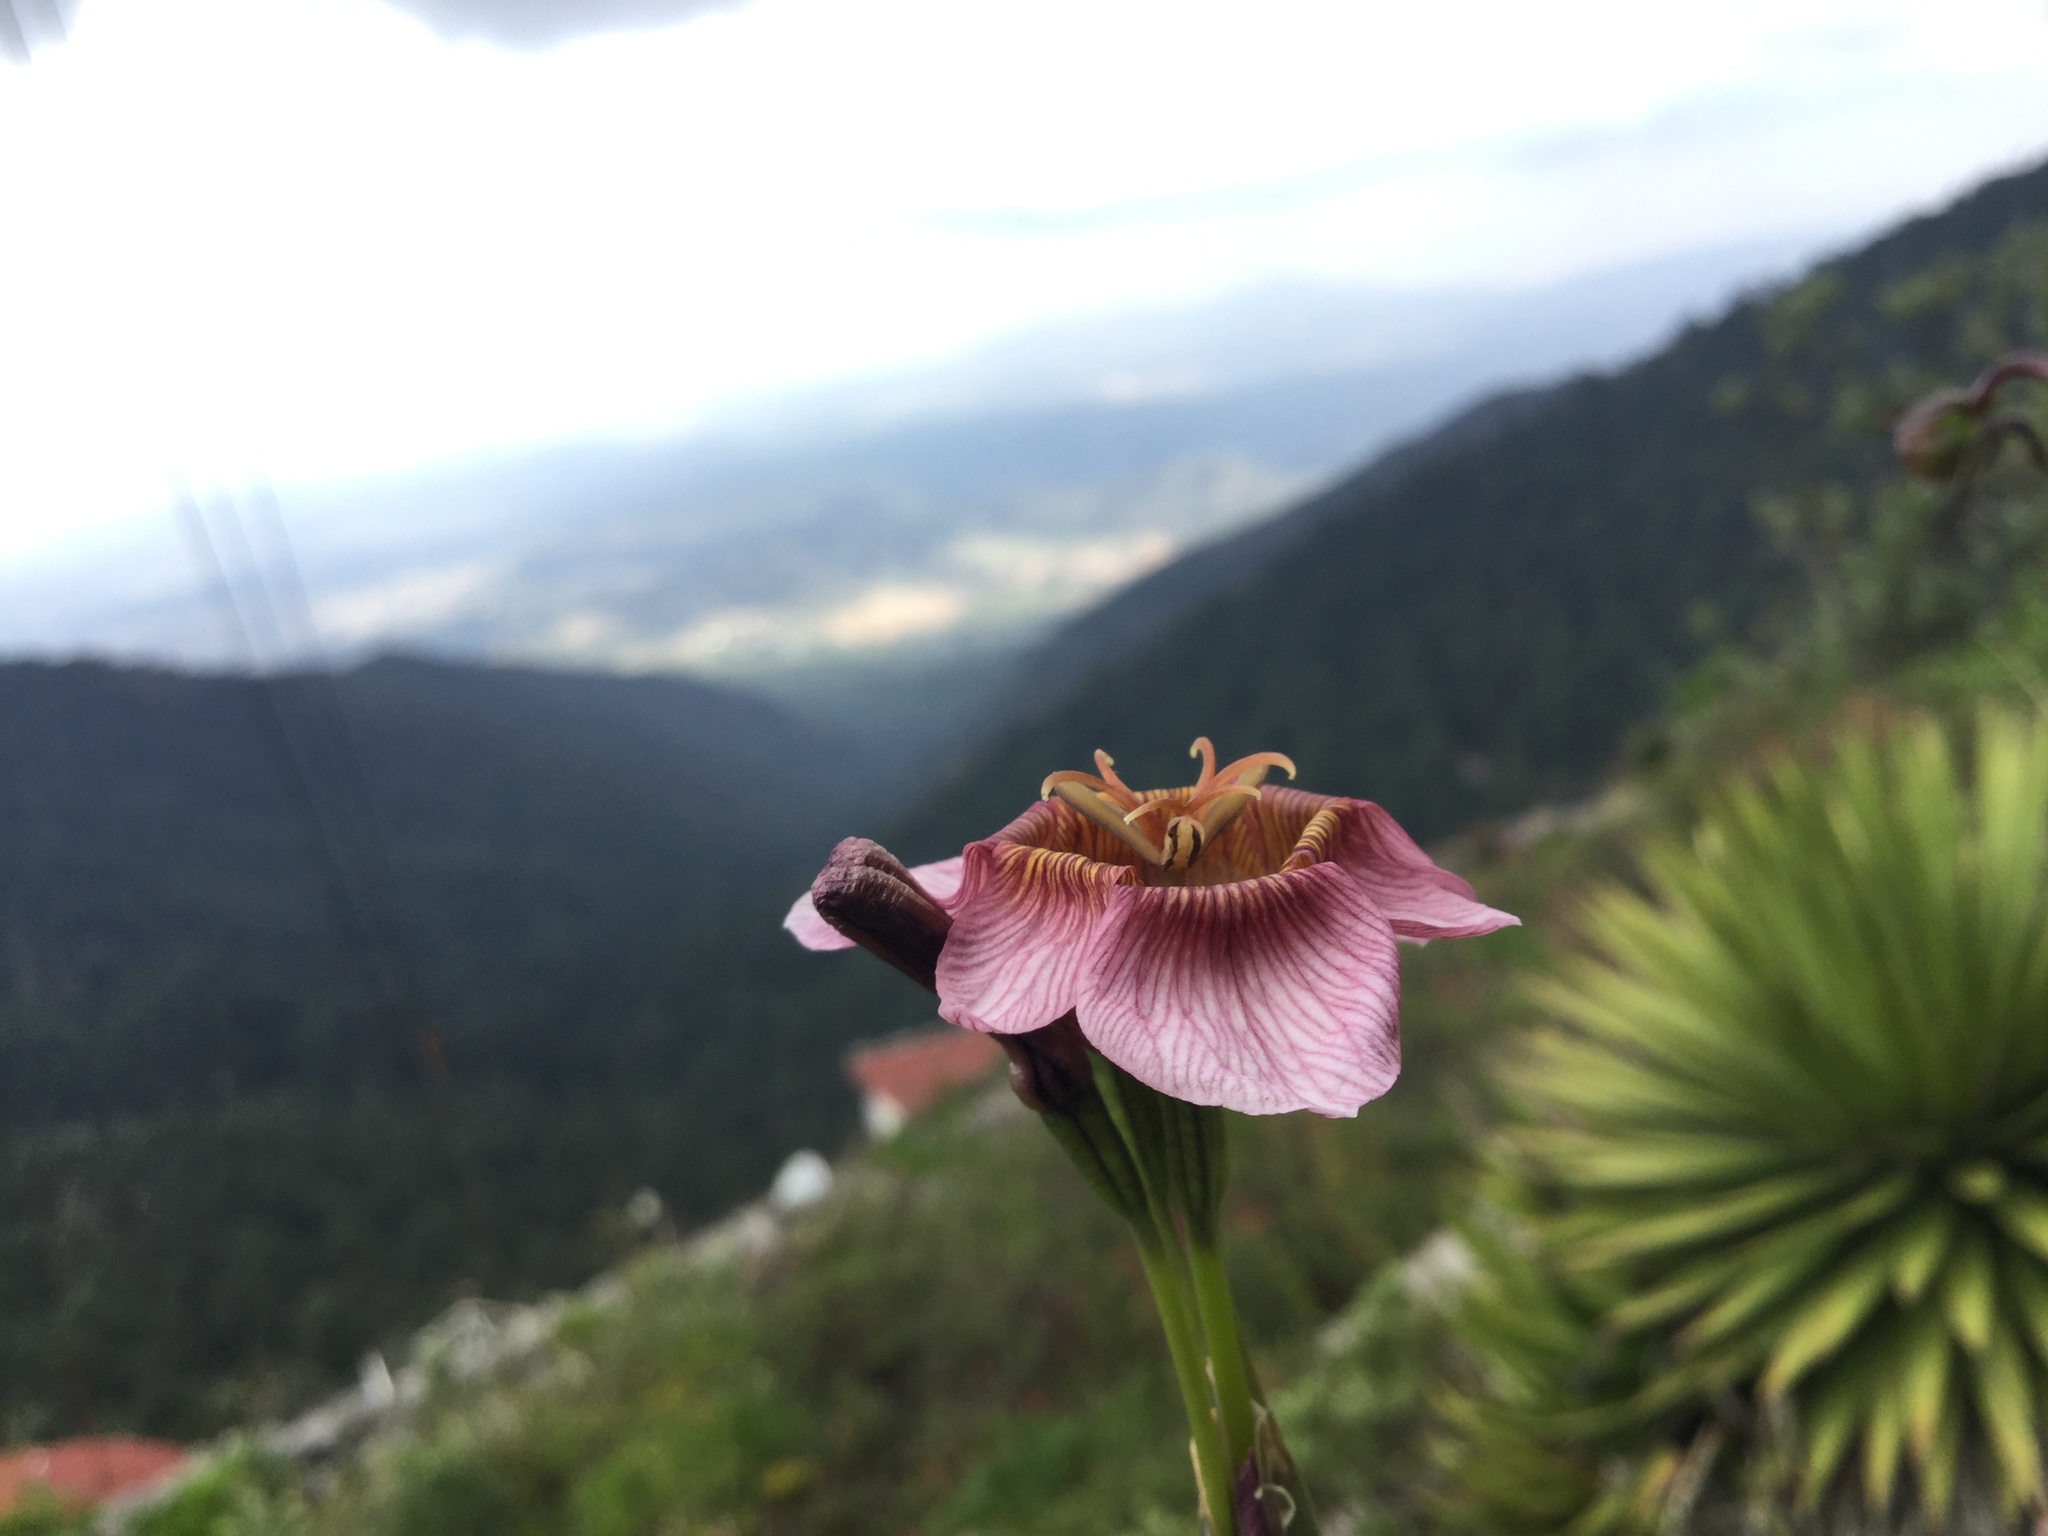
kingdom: Plantae
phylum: Tracheophyta
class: Liliopsida
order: Asparagales
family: Iridaceae
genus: Tigridia
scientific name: Tigridia multiflora
